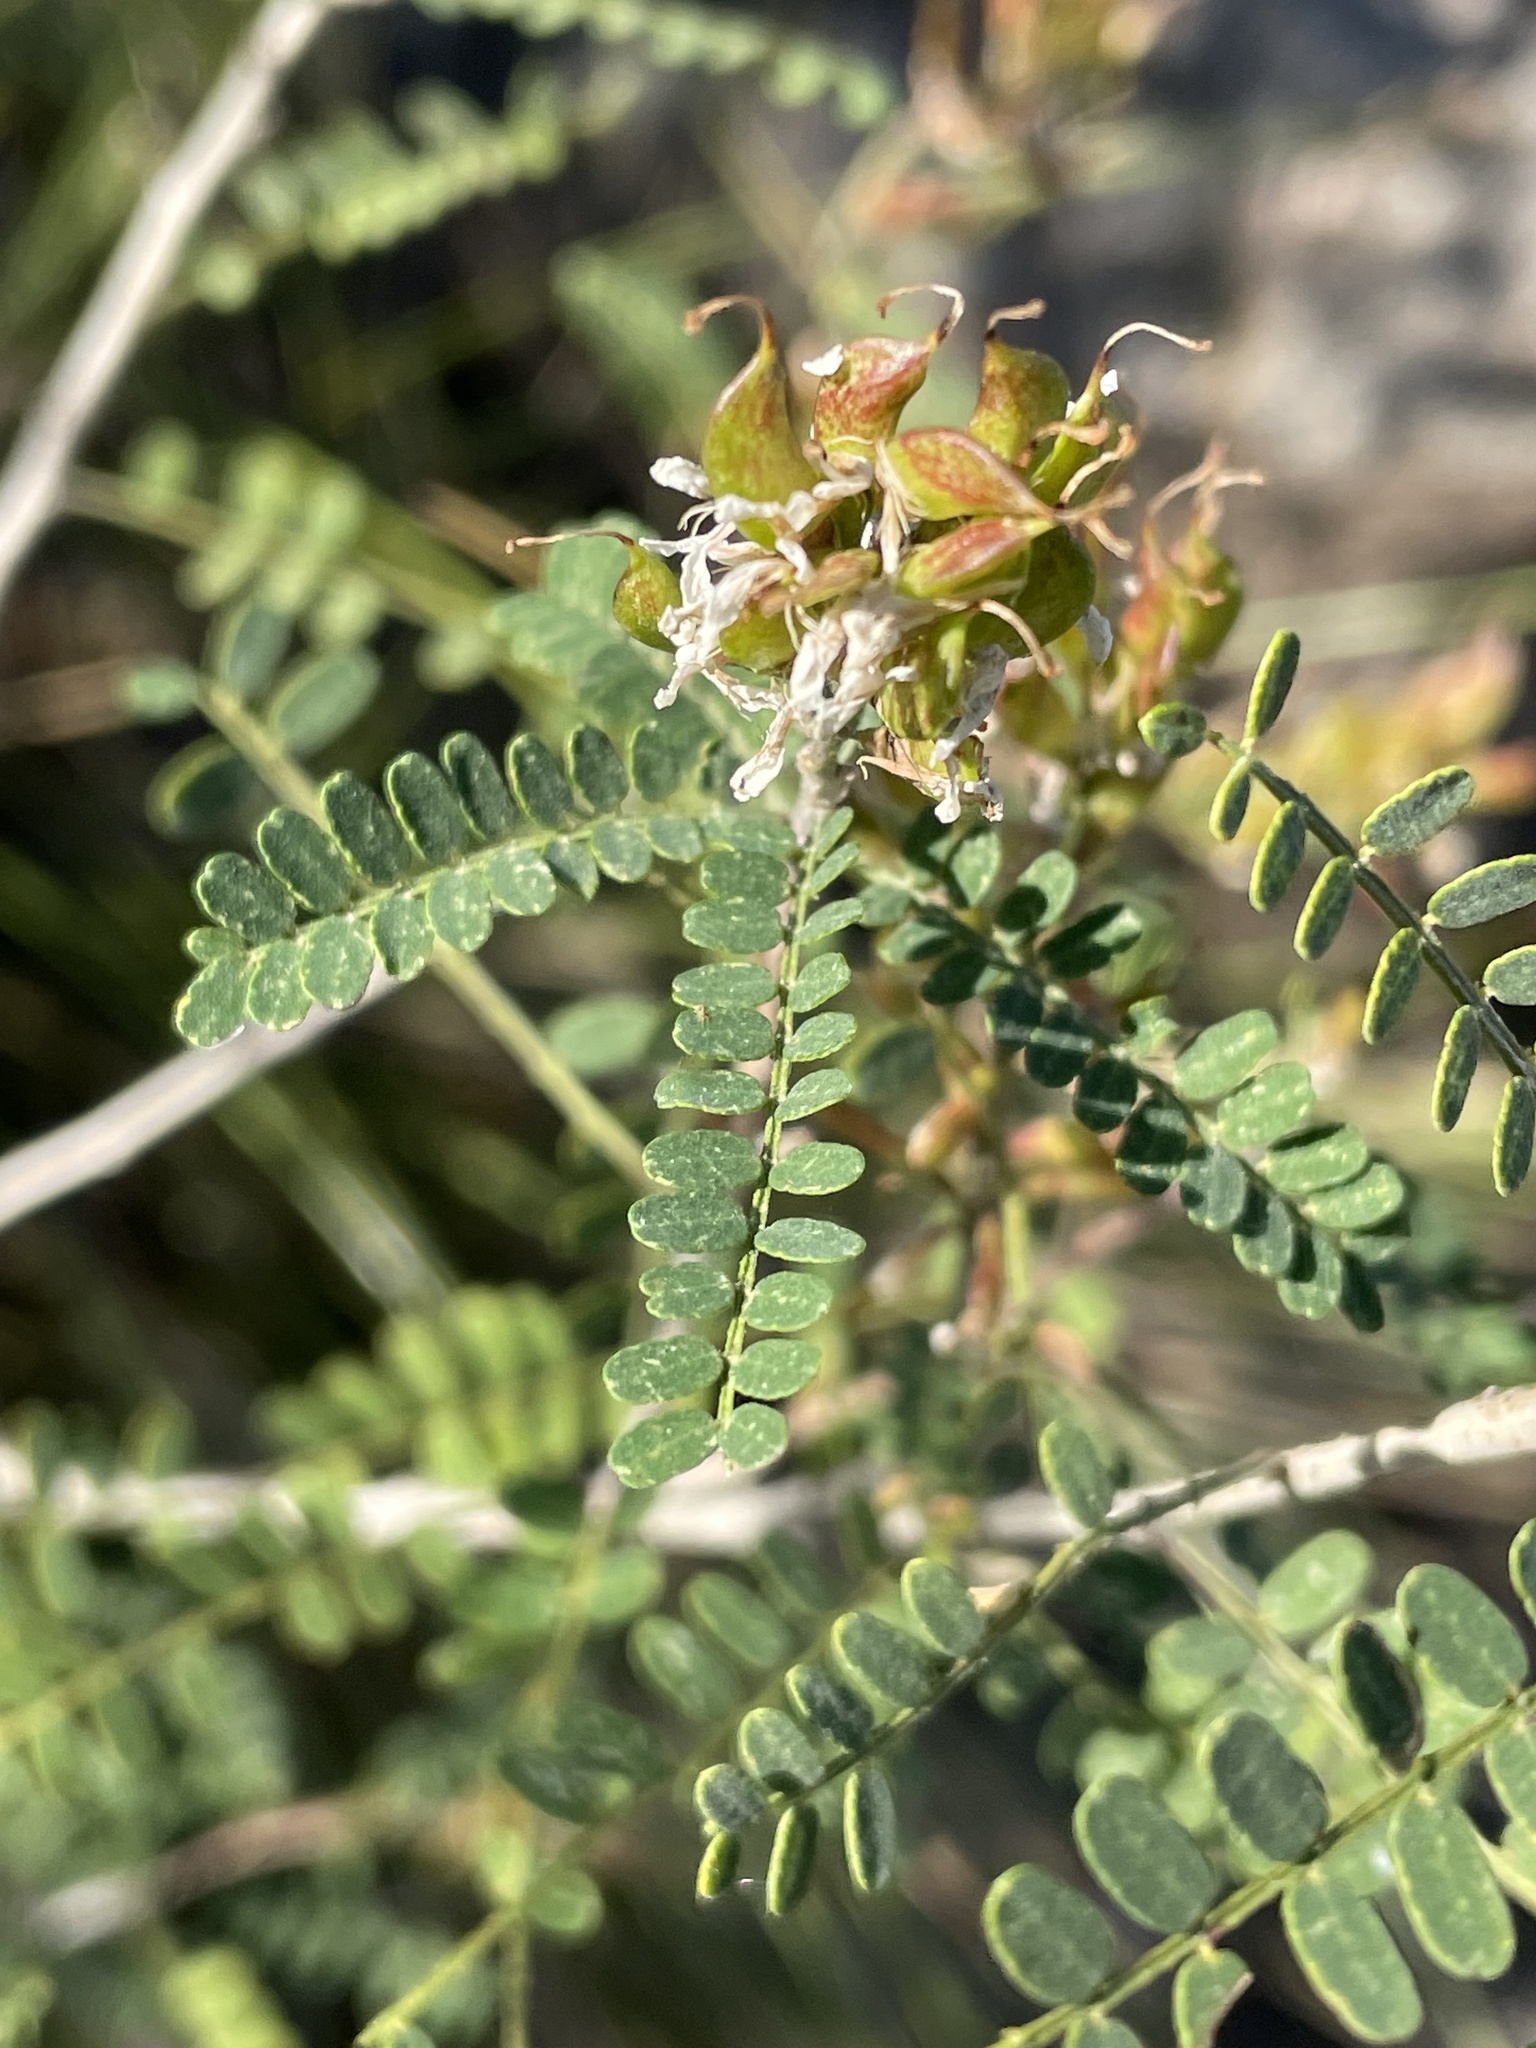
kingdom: Plantae
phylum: Tracheophyta
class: Magnoliopsida
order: Fabales
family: Fabaceae
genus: Eysenhardtia
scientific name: Eysenhardtia texana
